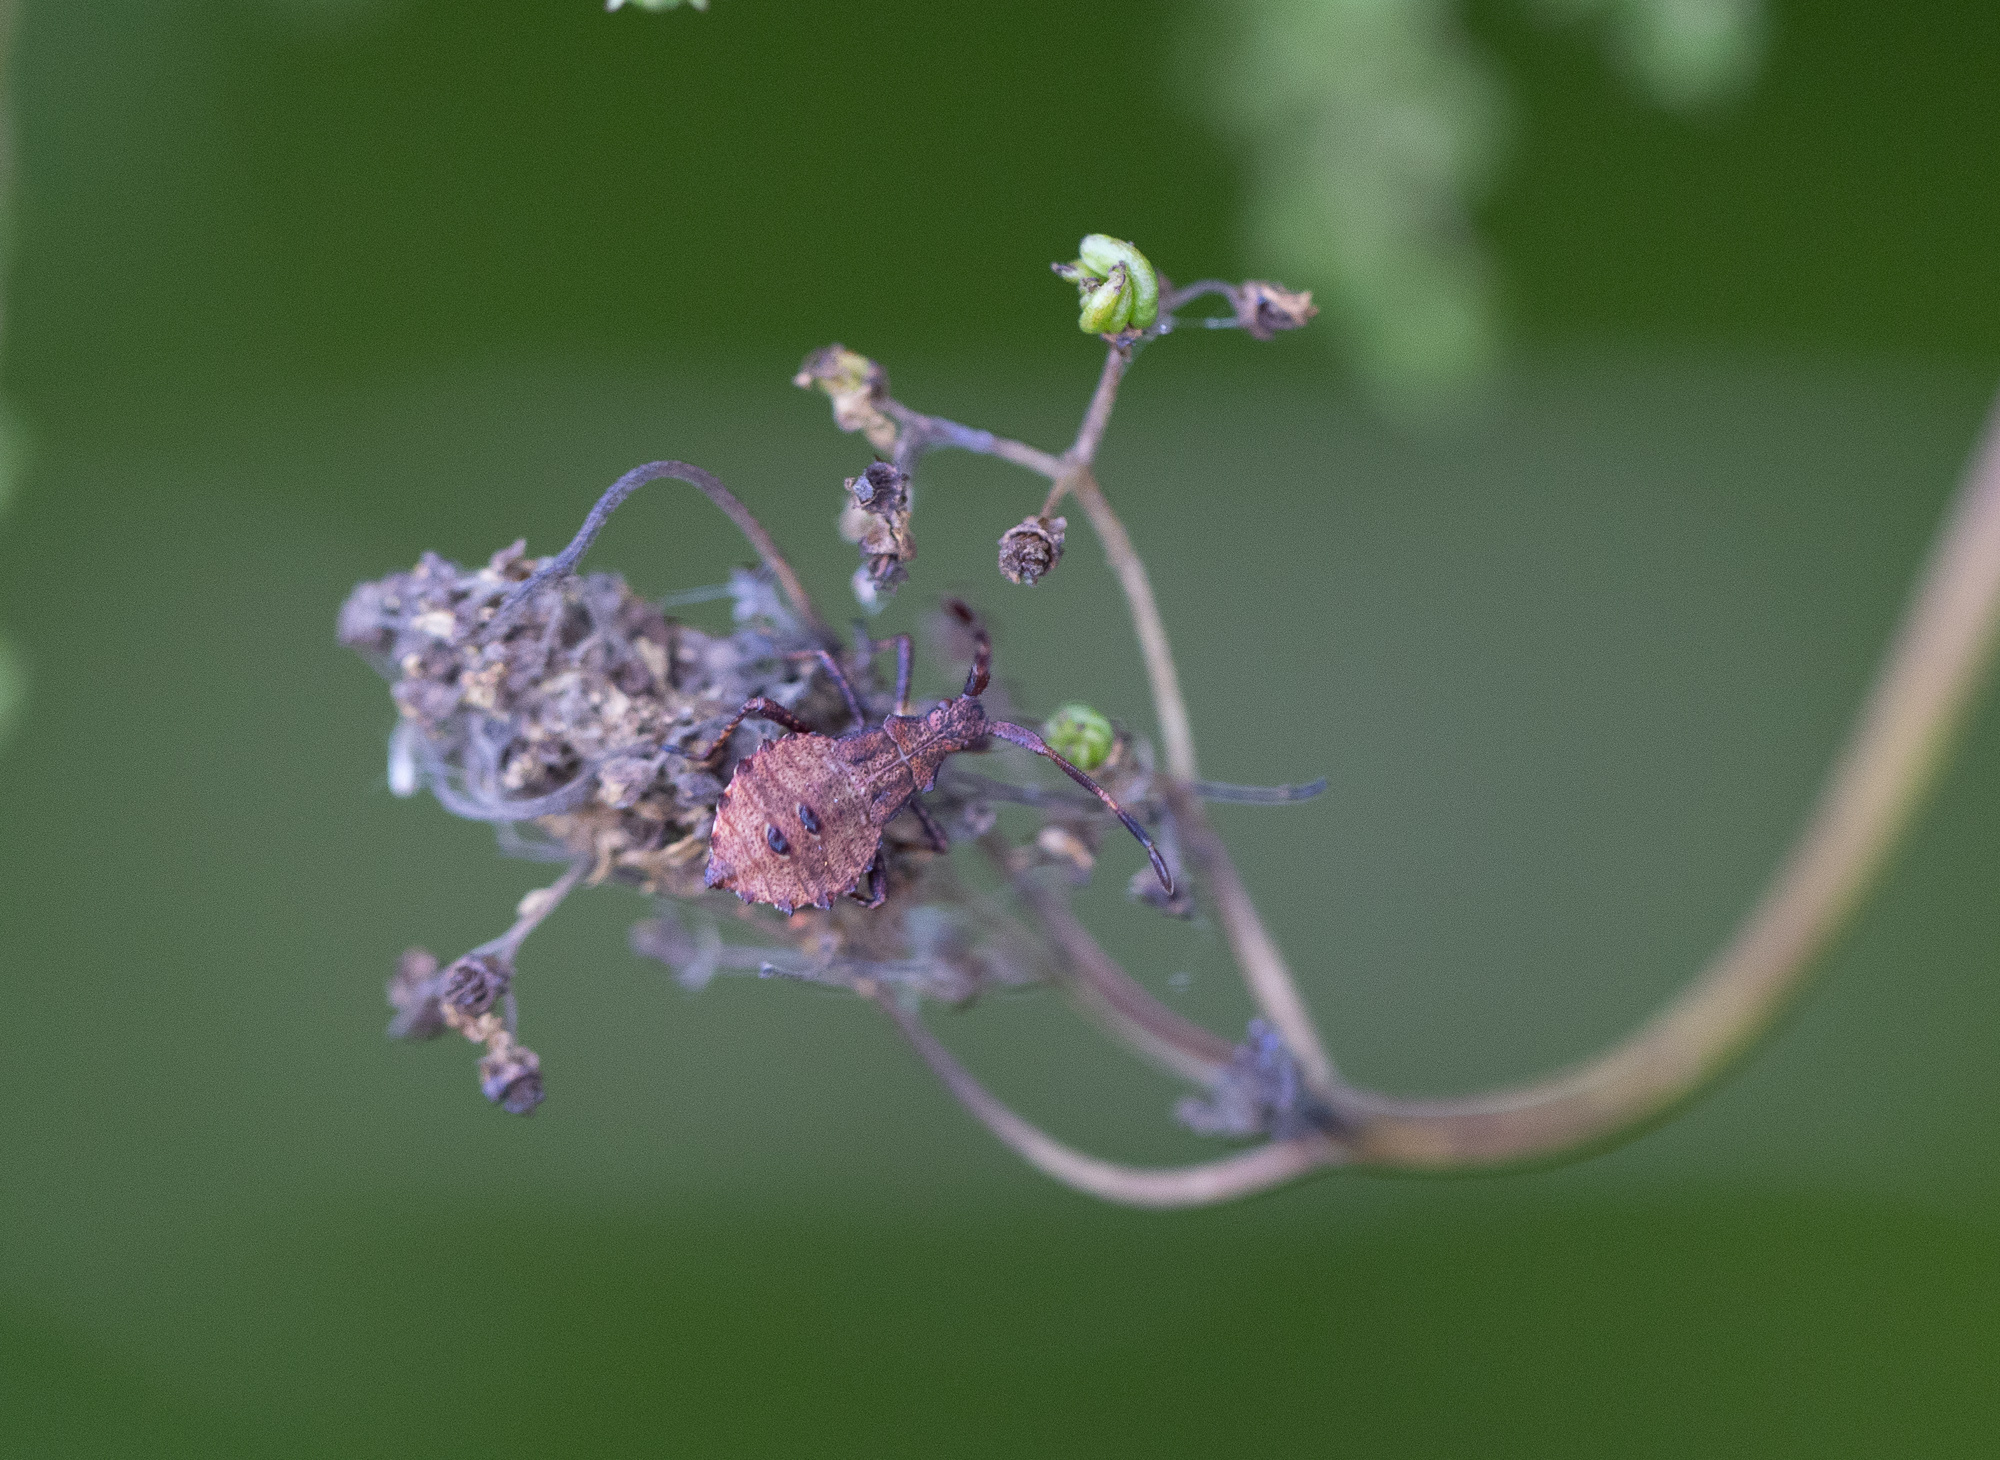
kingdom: Animalia
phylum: Arthropoda
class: Insecta
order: Hemiptera
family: Coreidae
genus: Coreus
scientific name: Coreus marginatus
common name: Dock bug
